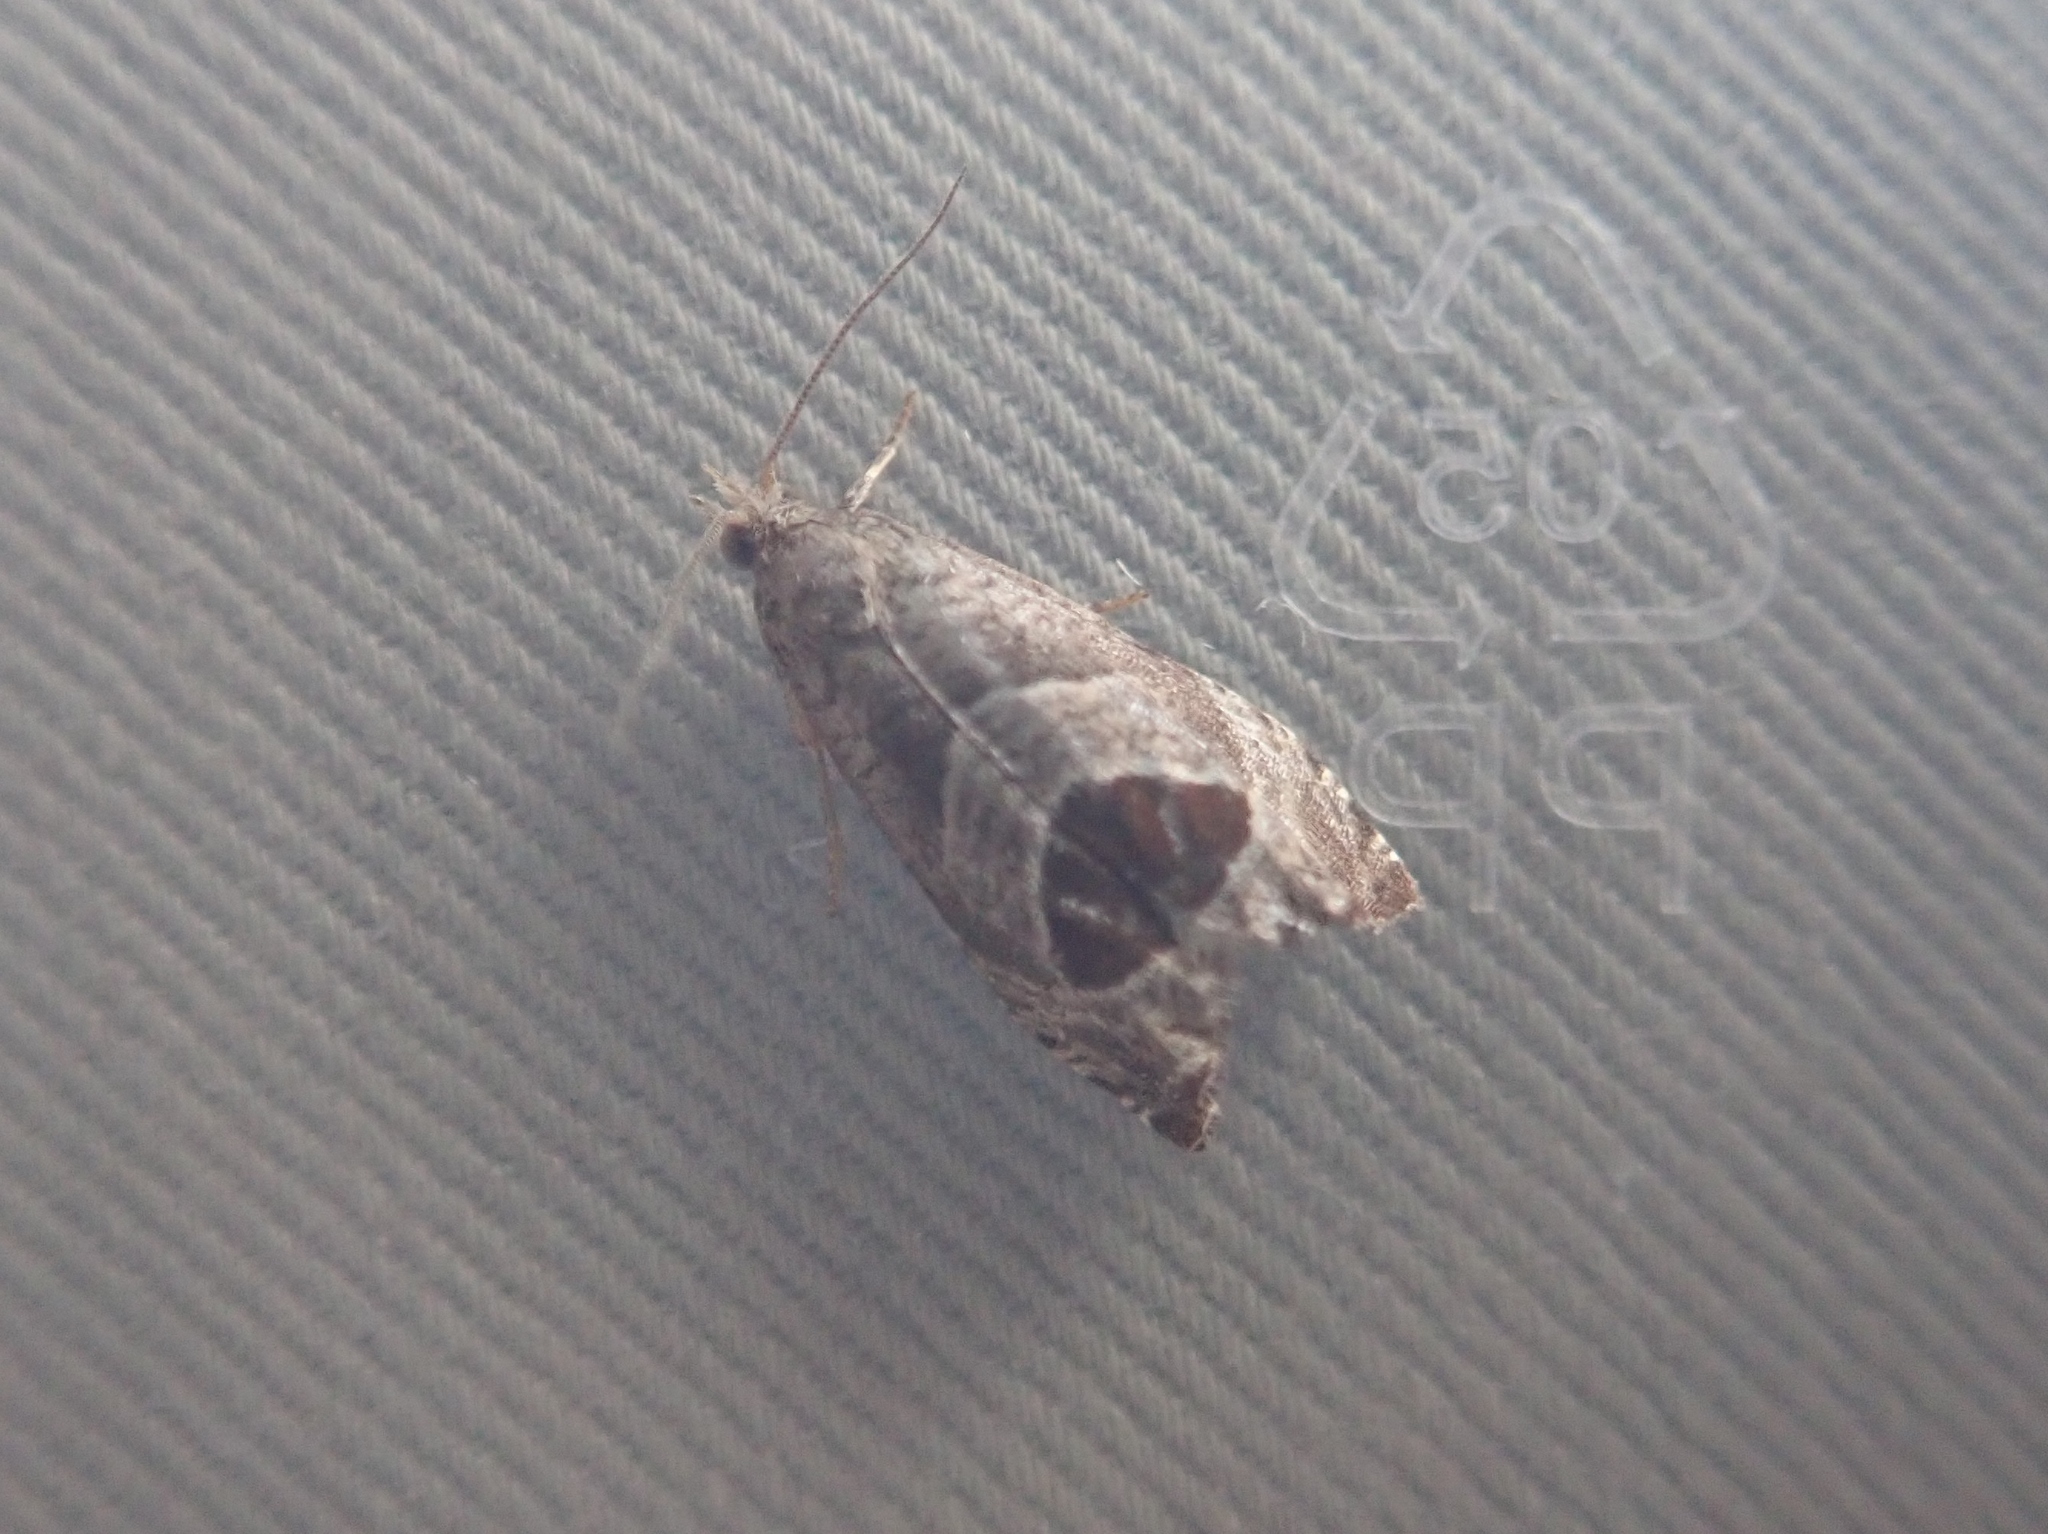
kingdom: Animalia
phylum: Arthropoda
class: Insecta
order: Lepidoptera
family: Tortricidae
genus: Notocelia
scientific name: Notocelia uddmanniana
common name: Bramble shoot moth
